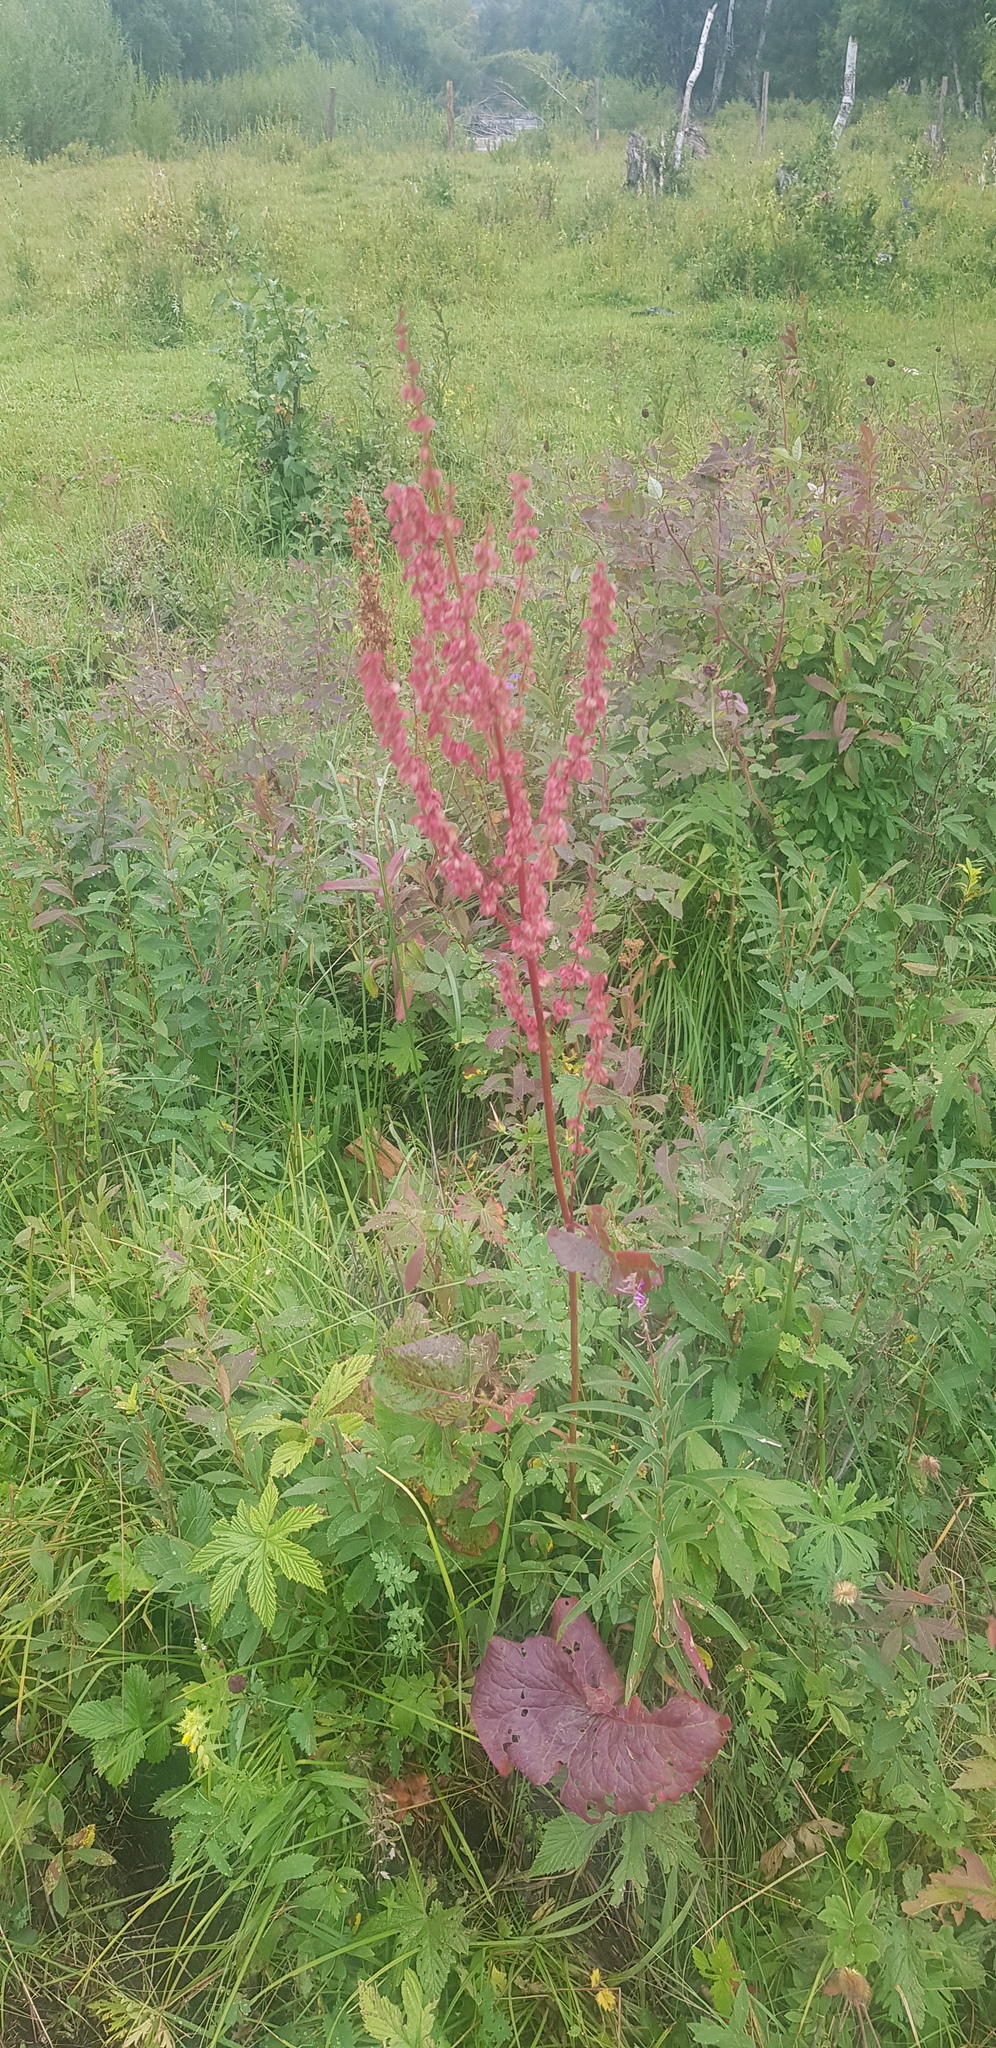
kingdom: Plantae
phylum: Tracheophyta
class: Magnoliopsida
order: Caryophyllales
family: Polygonaceae
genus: Rumex
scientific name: Rumex confertus
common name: Russian dock
